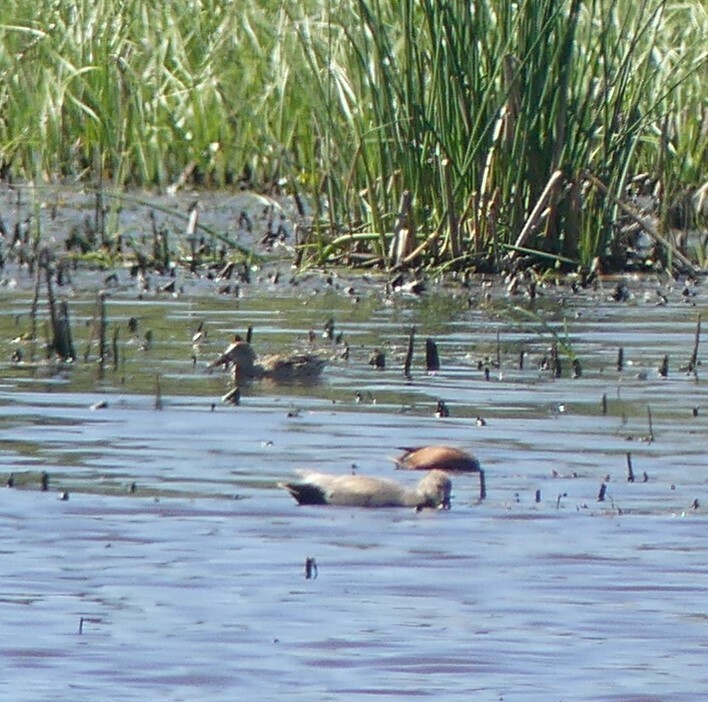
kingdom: Animalia
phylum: Chordata
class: Aves
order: Anseriformes
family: Anatidae
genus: Spatula
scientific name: Spatula cyanoptera
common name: Cinnamon teal
